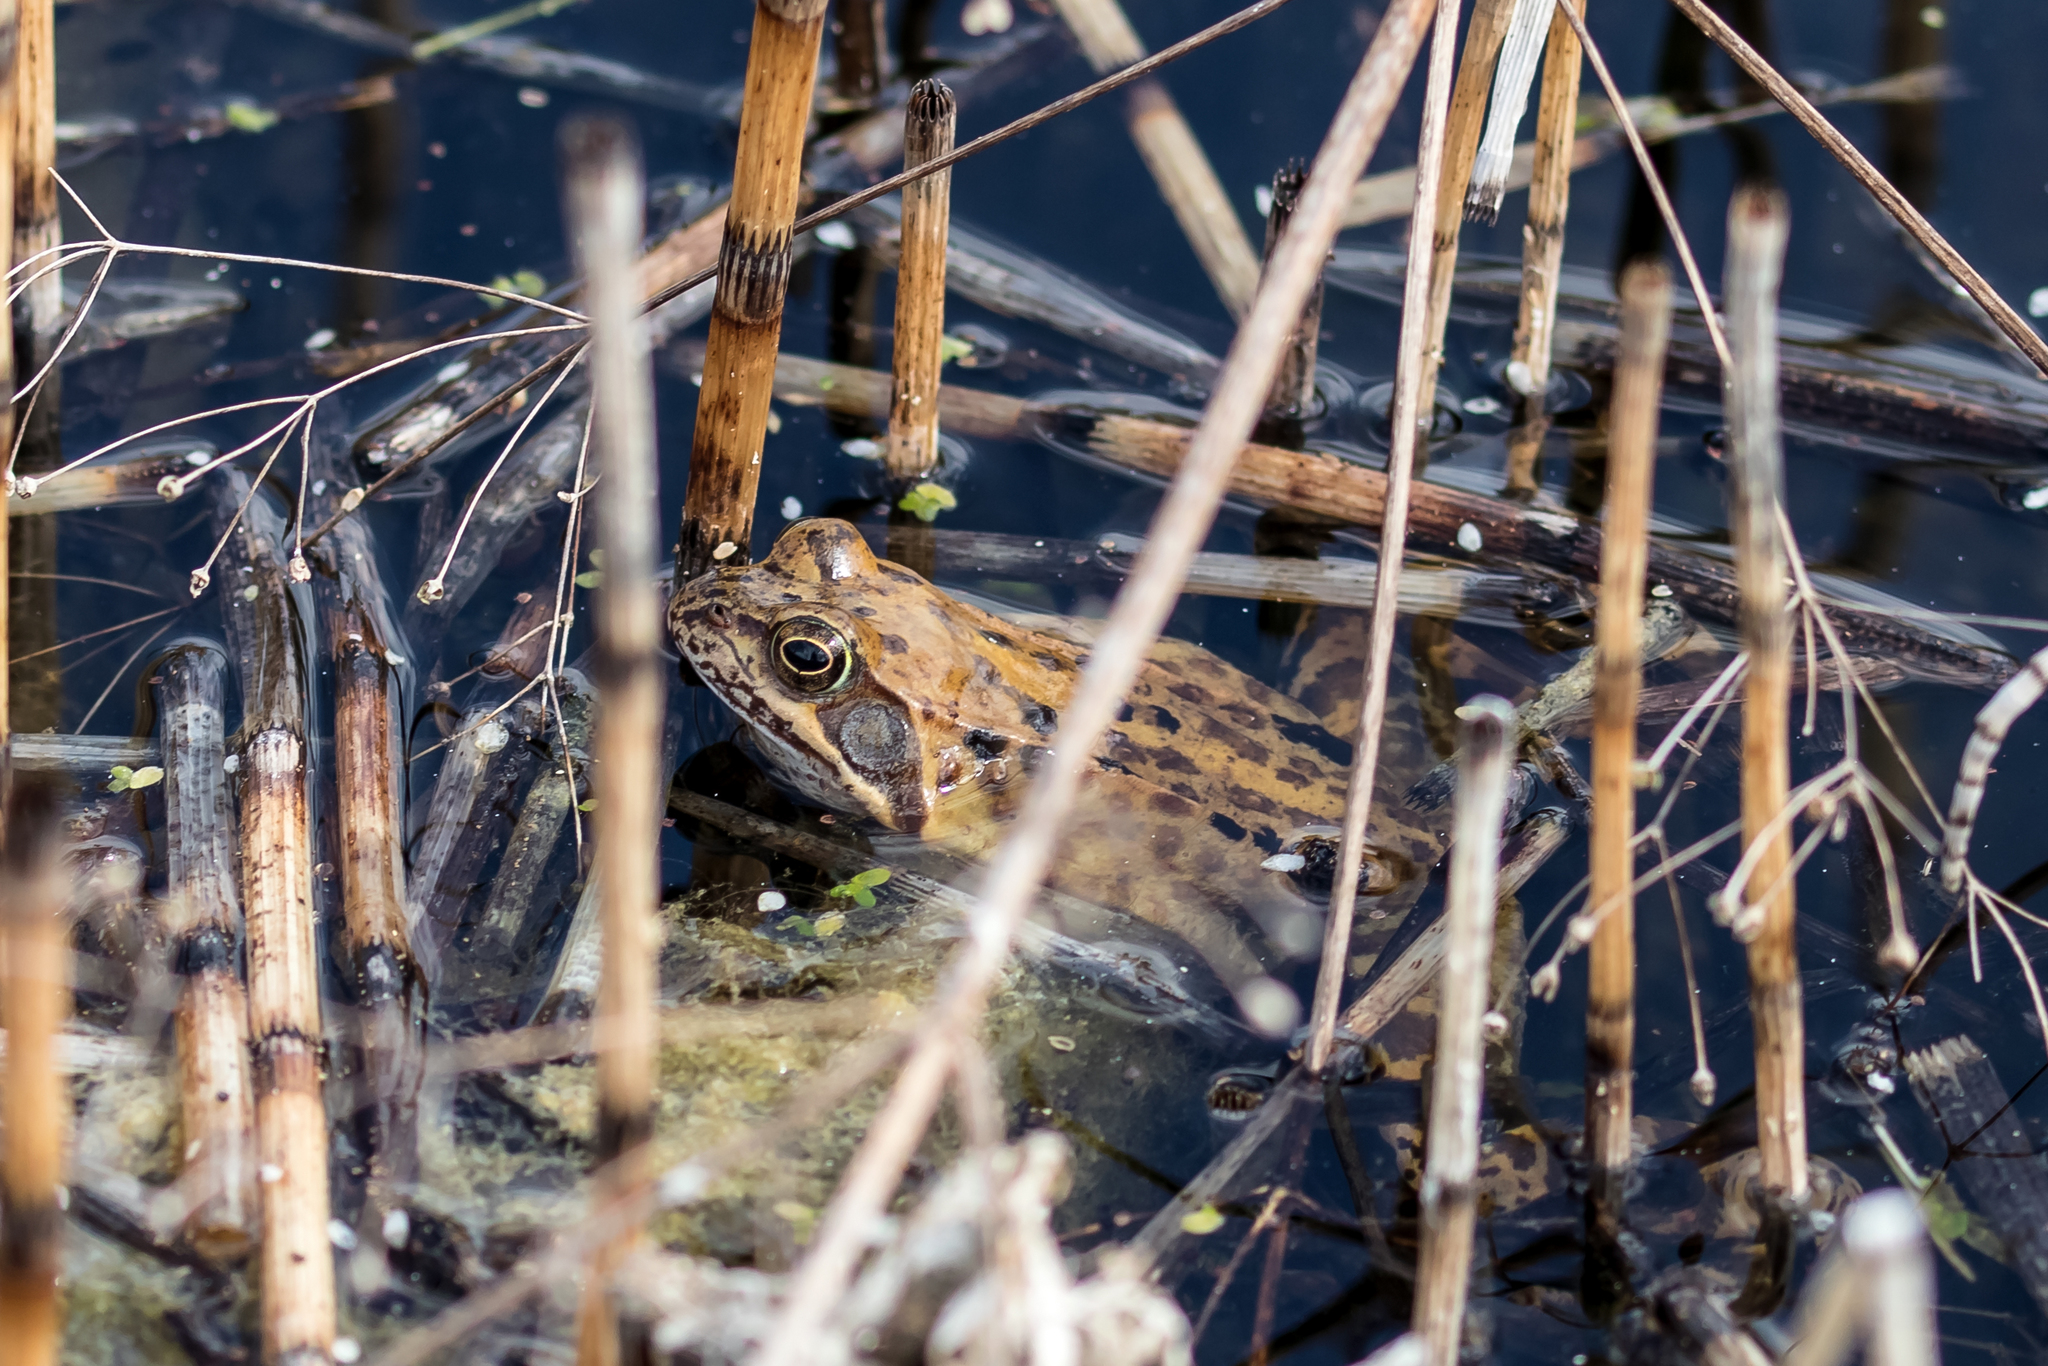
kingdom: Animalia
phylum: Chordata
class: Amphibia
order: Anura
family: Ranidae
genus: Rana
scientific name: Rana temporaria
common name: Common frog
